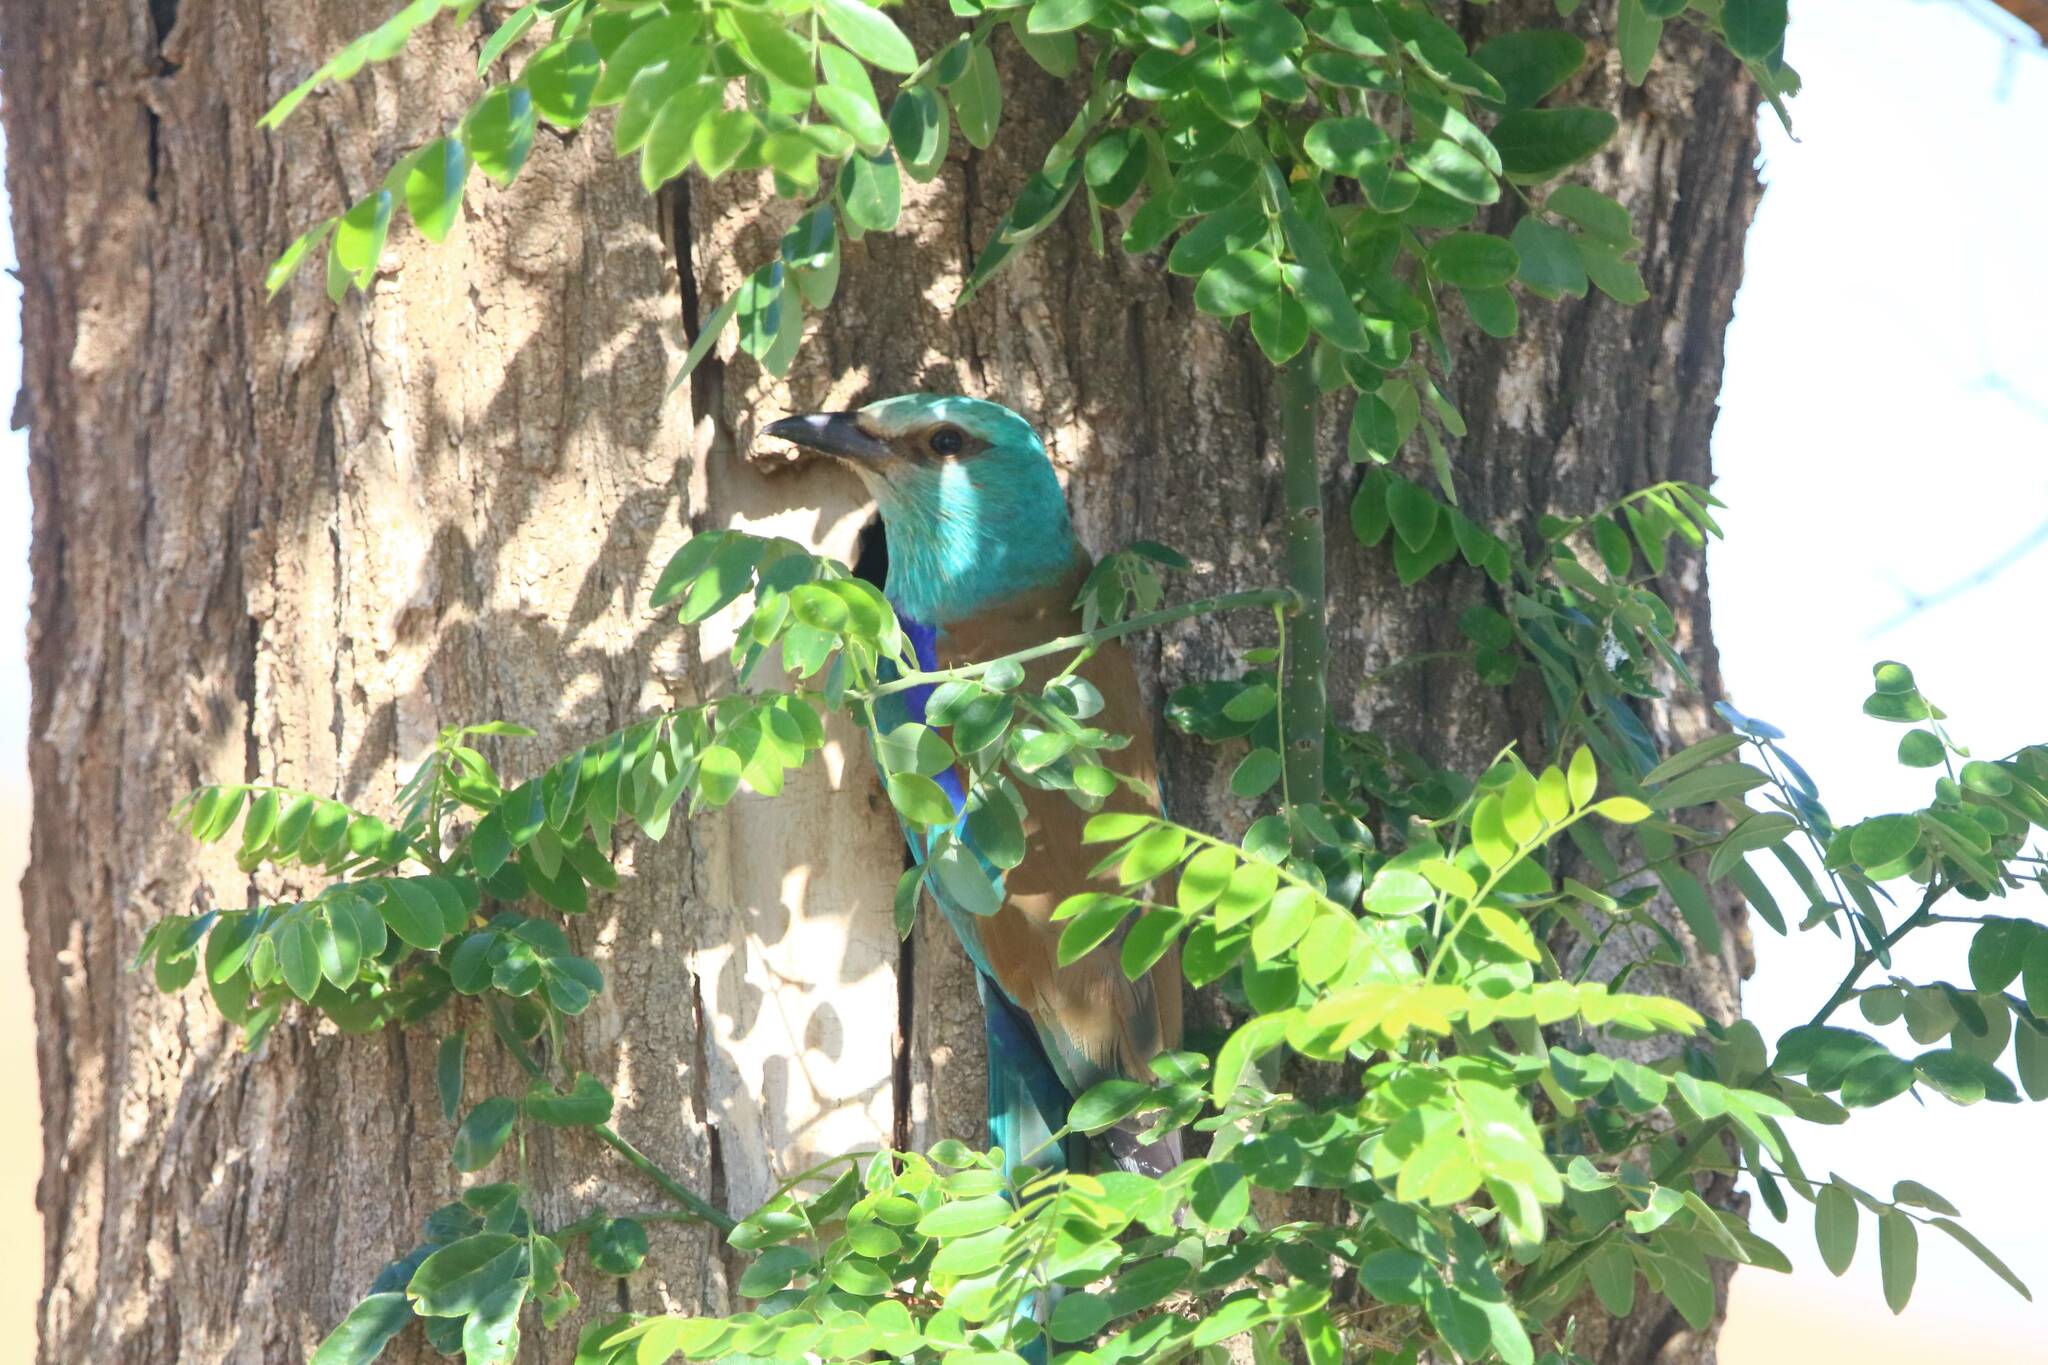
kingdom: Animalia
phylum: Chordata
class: Aves
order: Coraciiformes
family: Coraciidae
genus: Coracias
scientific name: Coracias garrulus
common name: European roller
